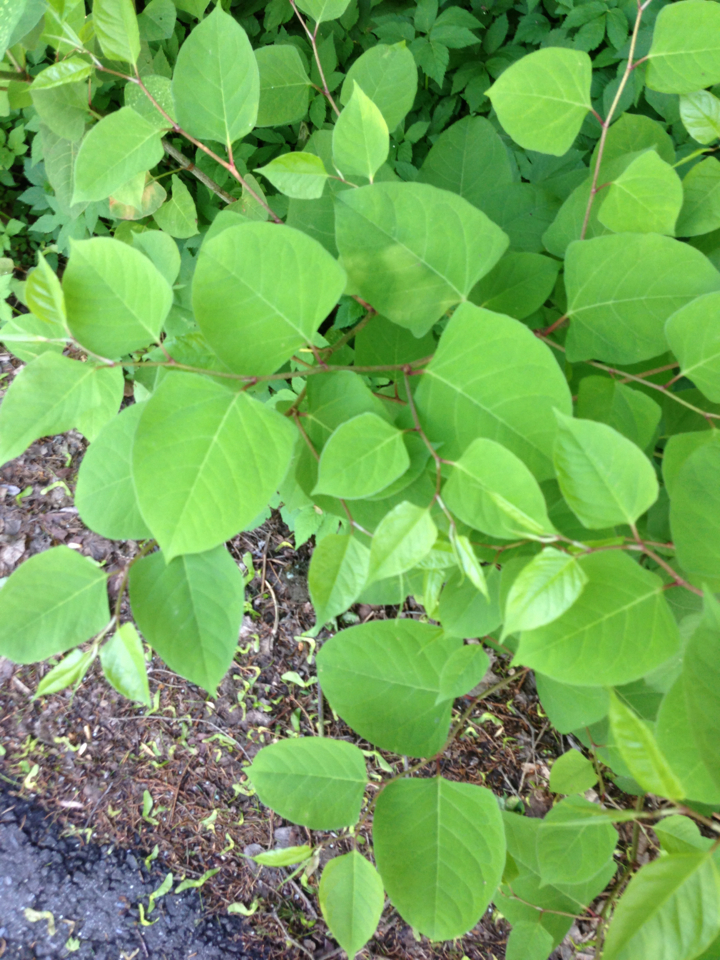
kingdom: Plantae
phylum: Tracheophyta
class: Magnoliopsida
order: Caryophyllales
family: Polygonaceae
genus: Reynoutria
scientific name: Reynoutria japonica
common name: Japanese knotweed
